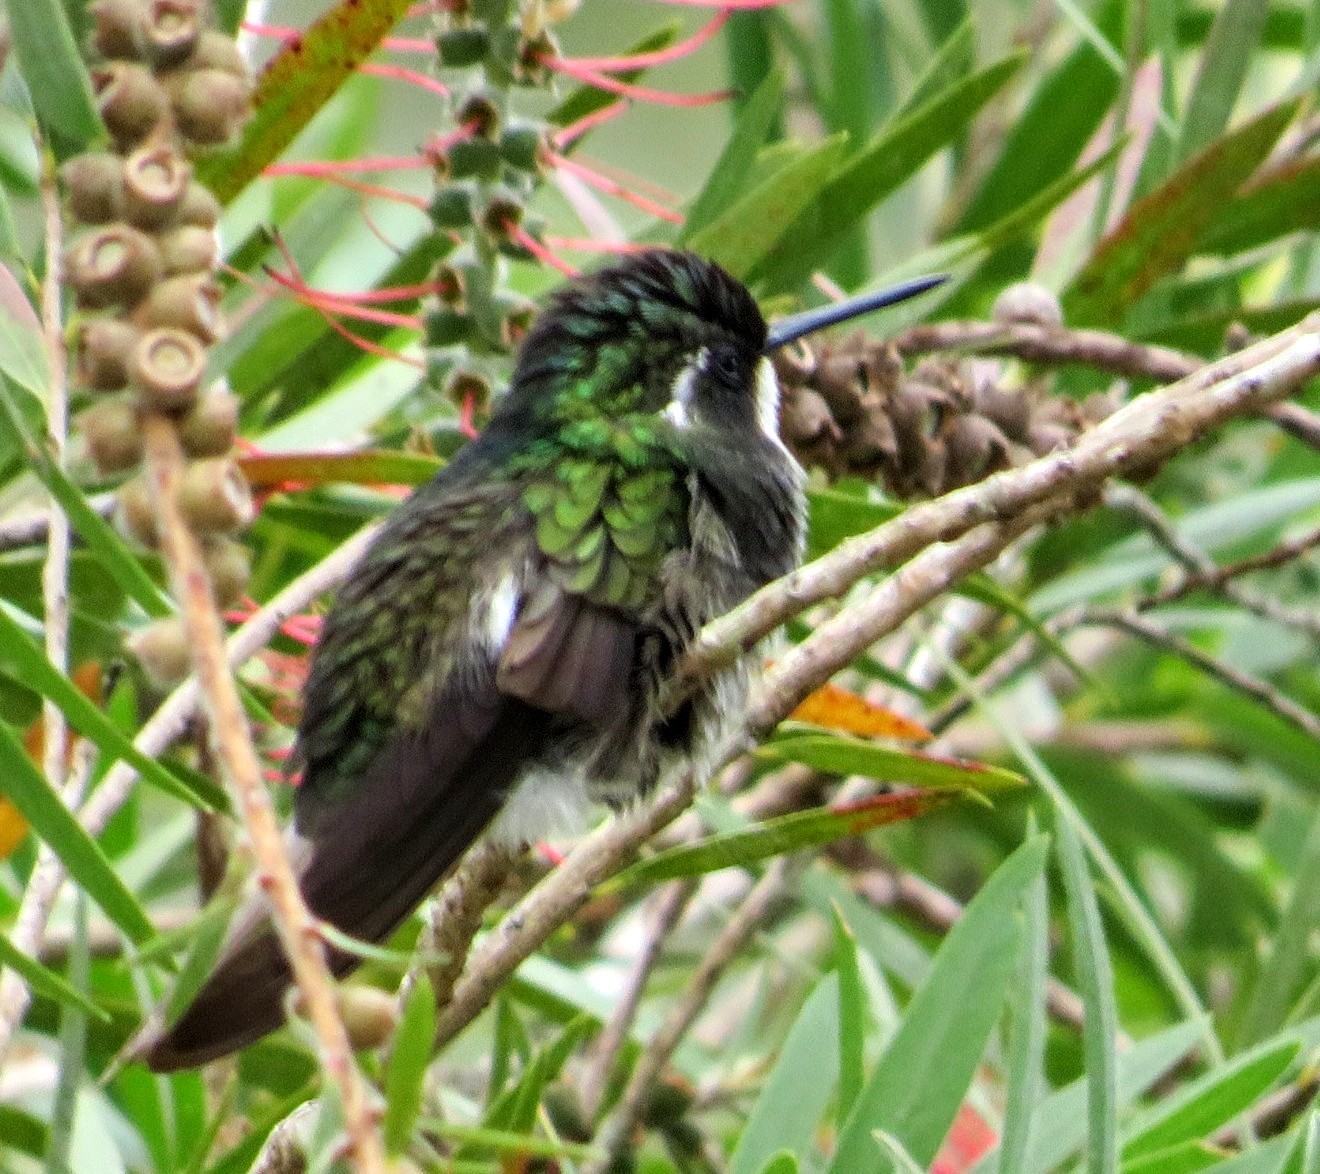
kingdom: Animalia
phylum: Chordata
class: Aves
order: Apodiformes
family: Trochilidae
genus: Lampornis
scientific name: Lampornis castaneoventris
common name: White-throated mountain-gem
